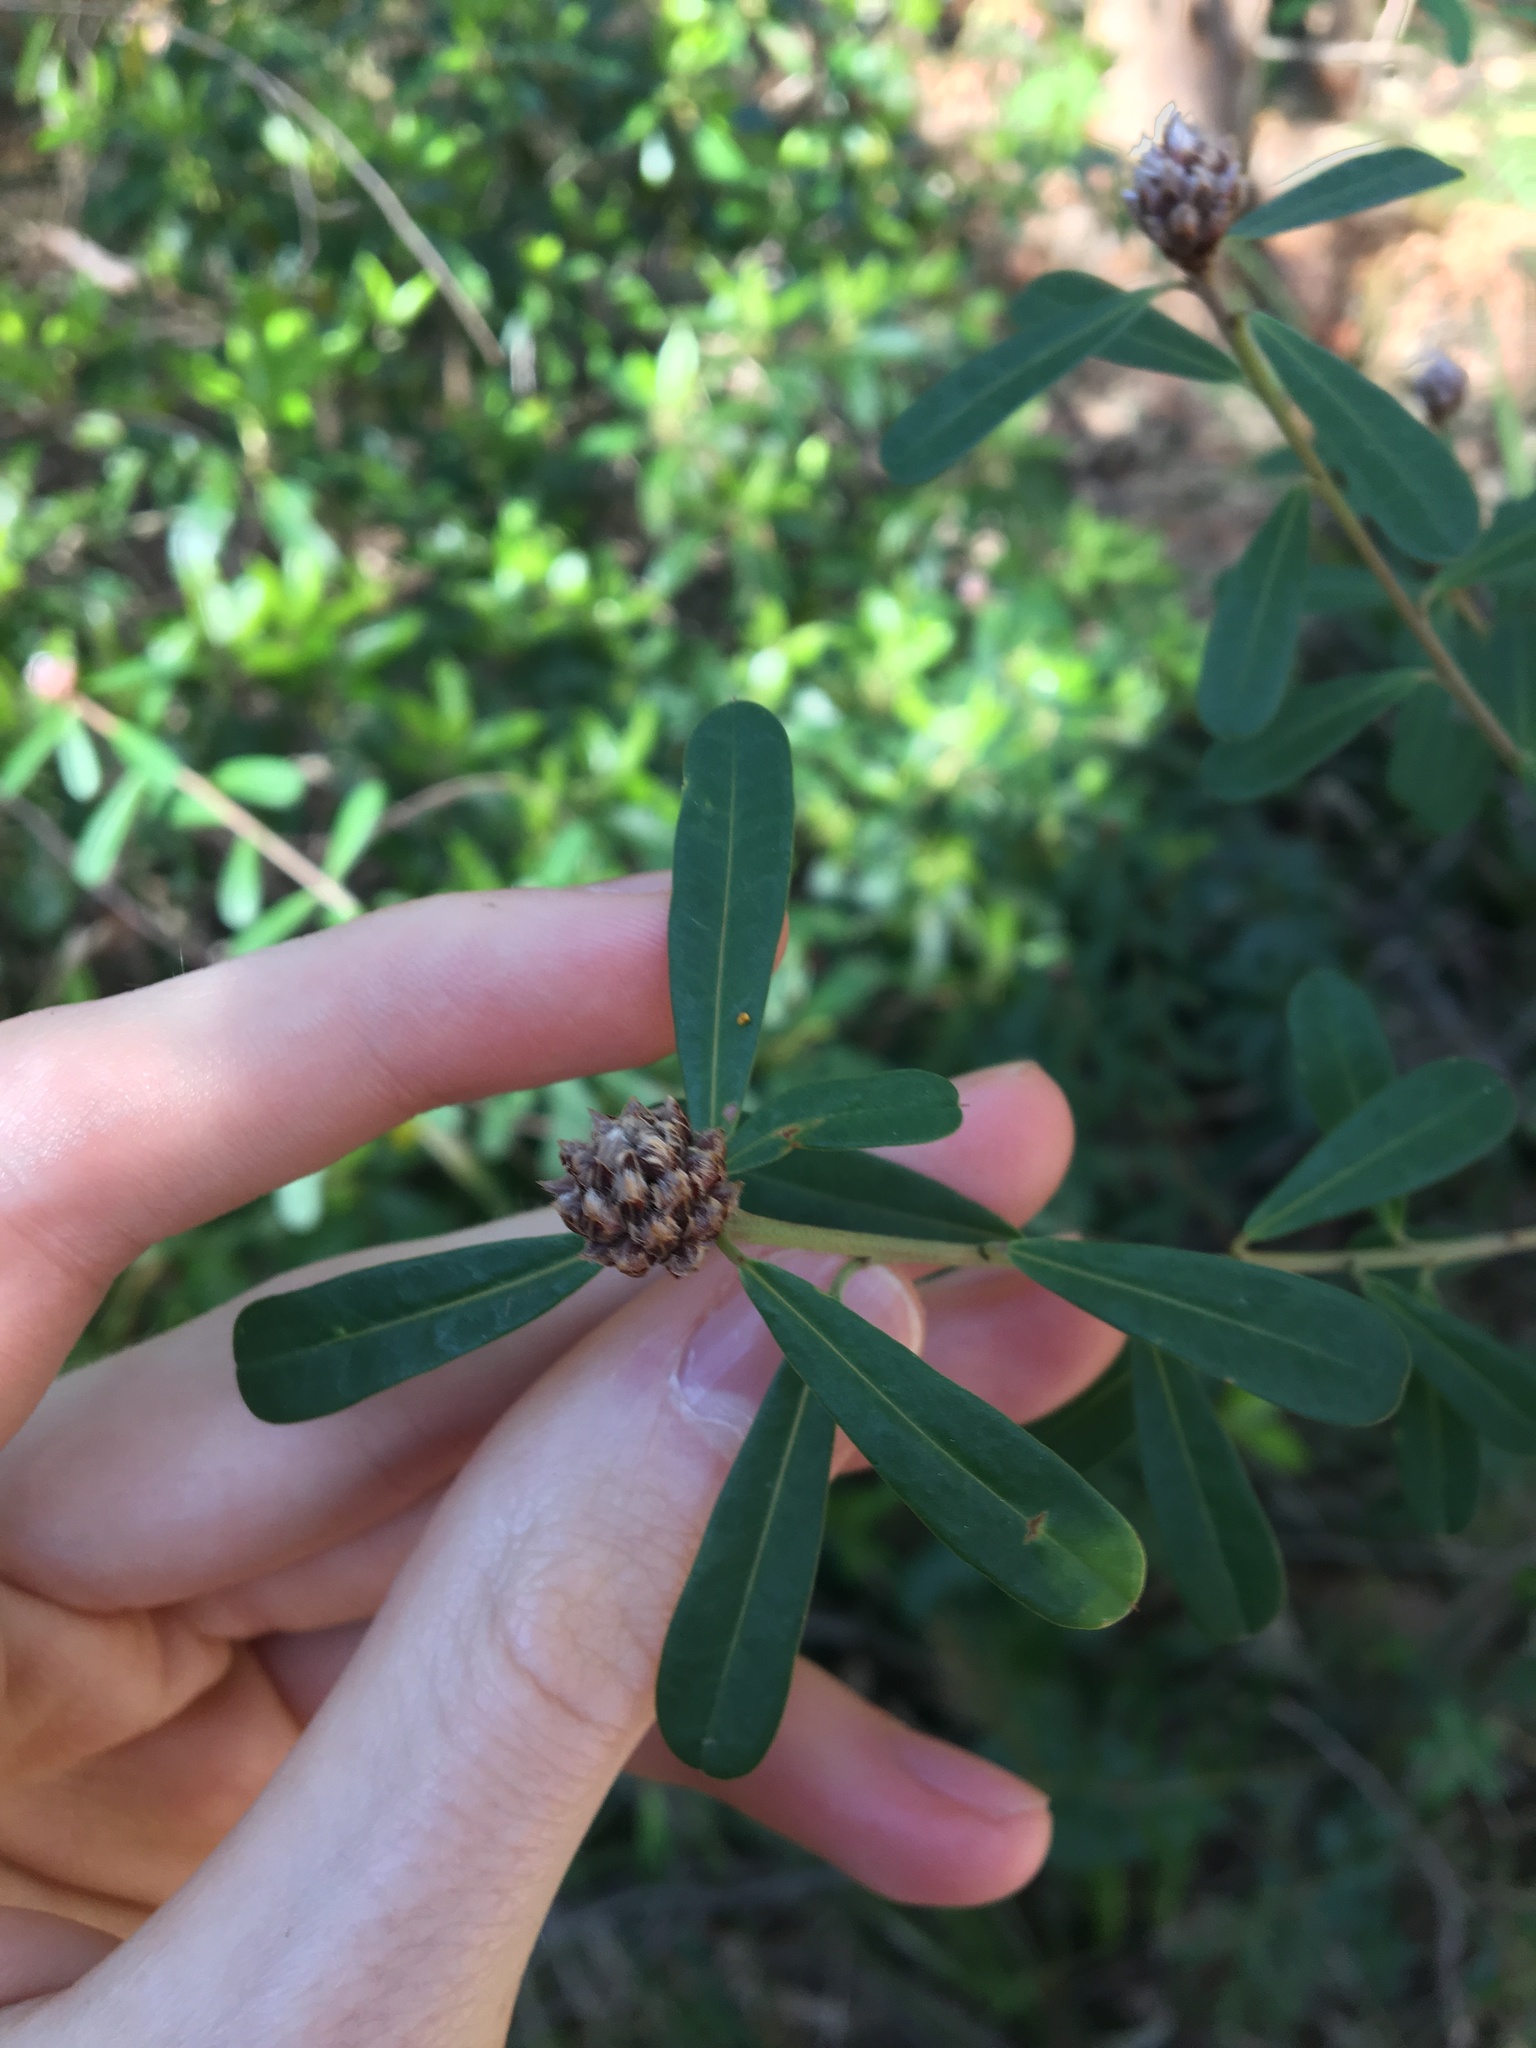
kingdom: Plantae
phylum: Tracheophyta
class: Magnoliopsida
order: Fabales
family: Fabaceae
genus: Pultenaea
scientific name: Pultenaea daphnoides
